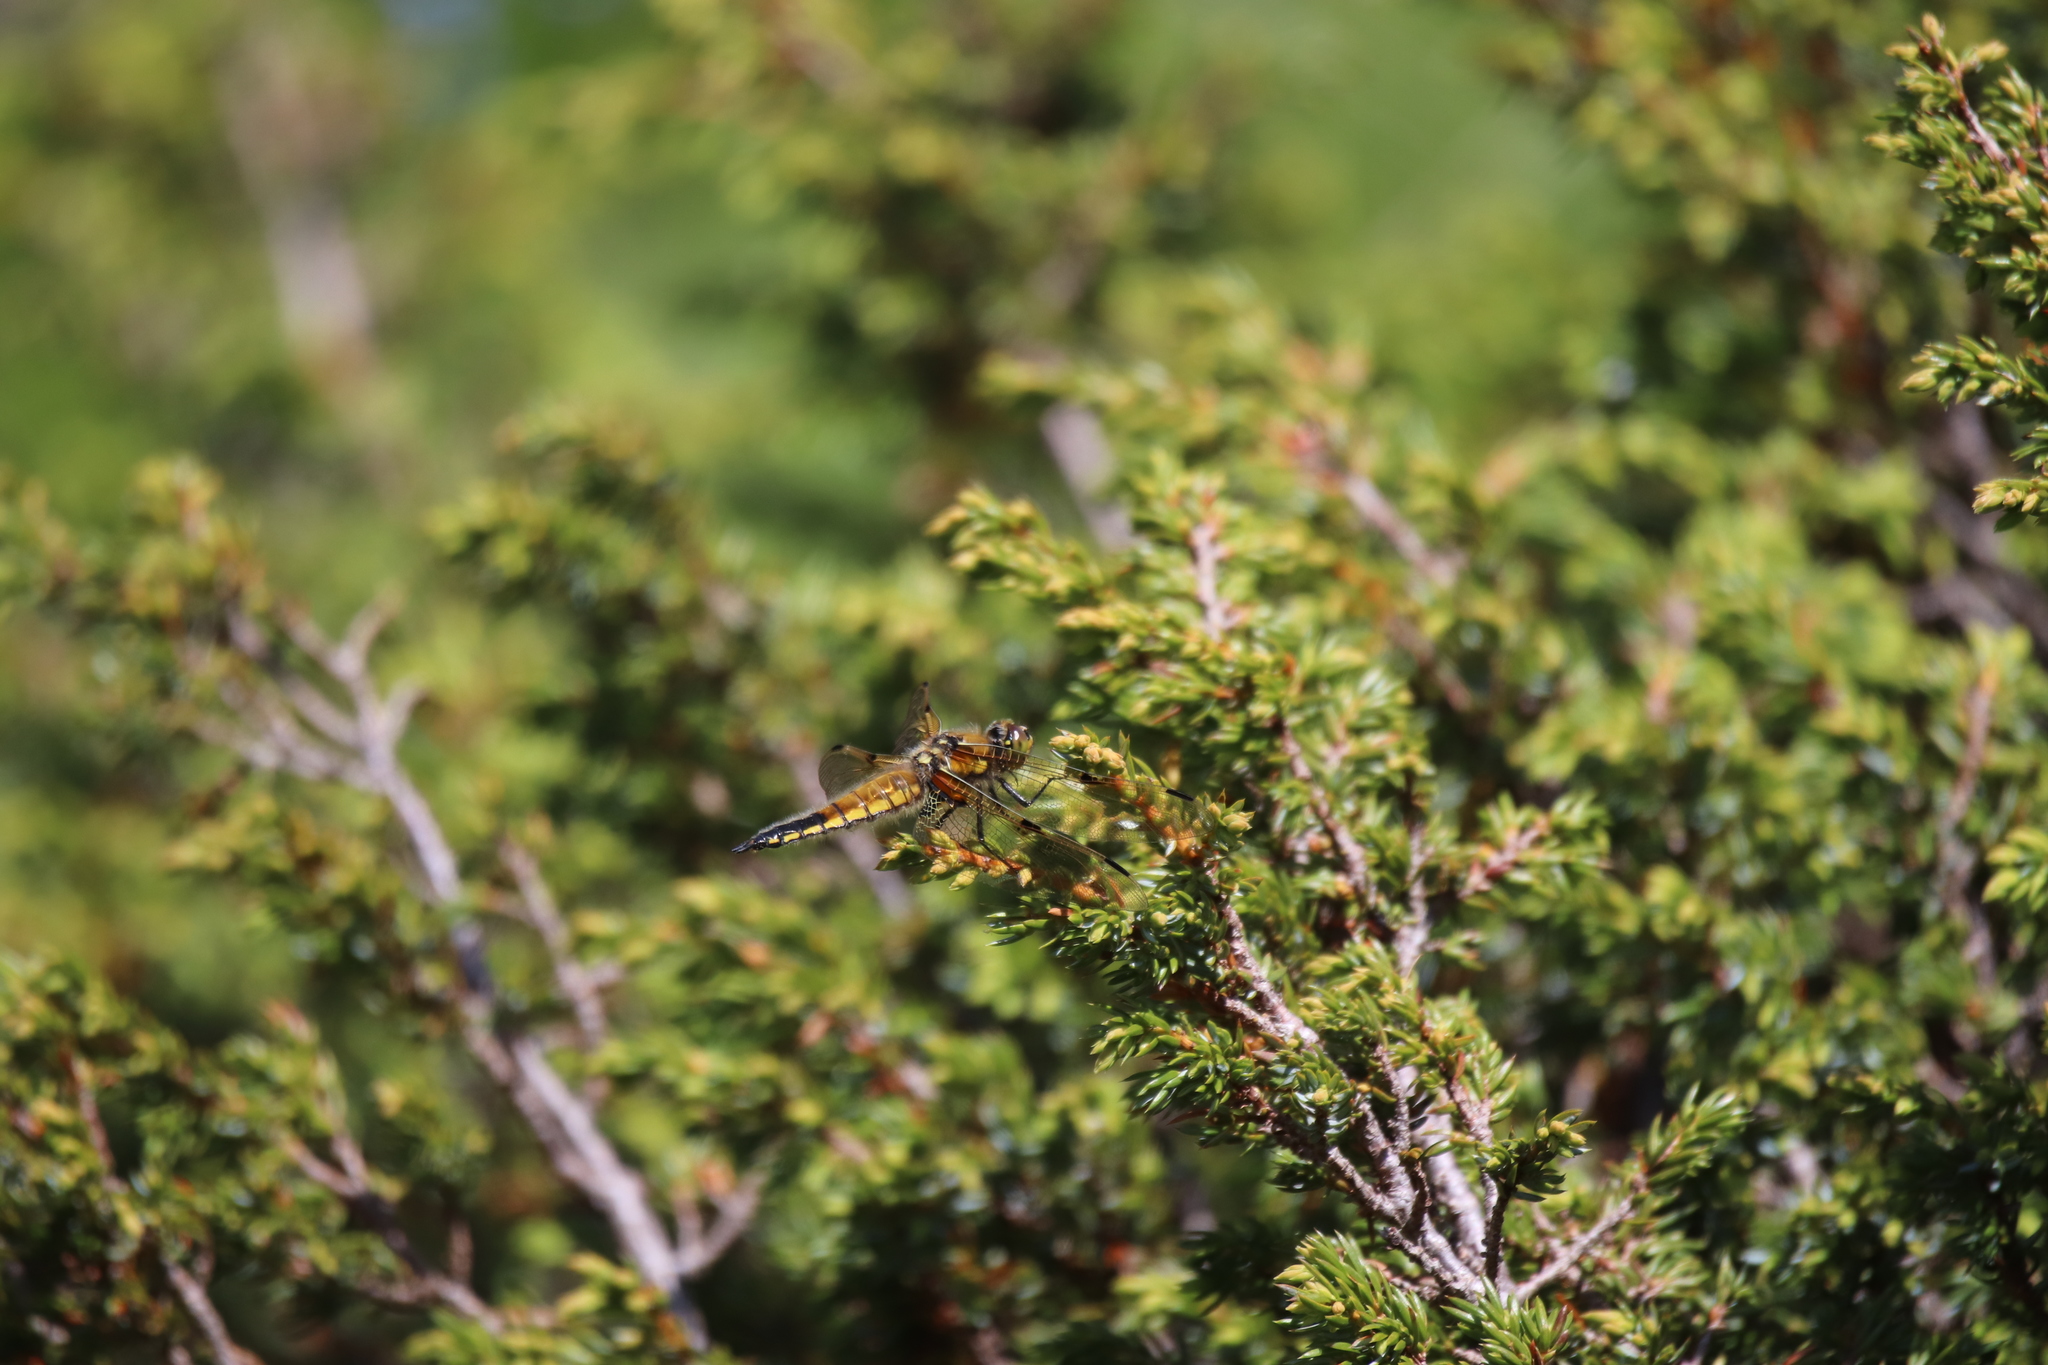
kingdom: Animalia
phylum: Arthropoda
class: Insecta
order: Odonata
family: Libellulidae
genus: Libellula
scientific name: Libellula quadrimaculata
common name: Four-spotted chaser
